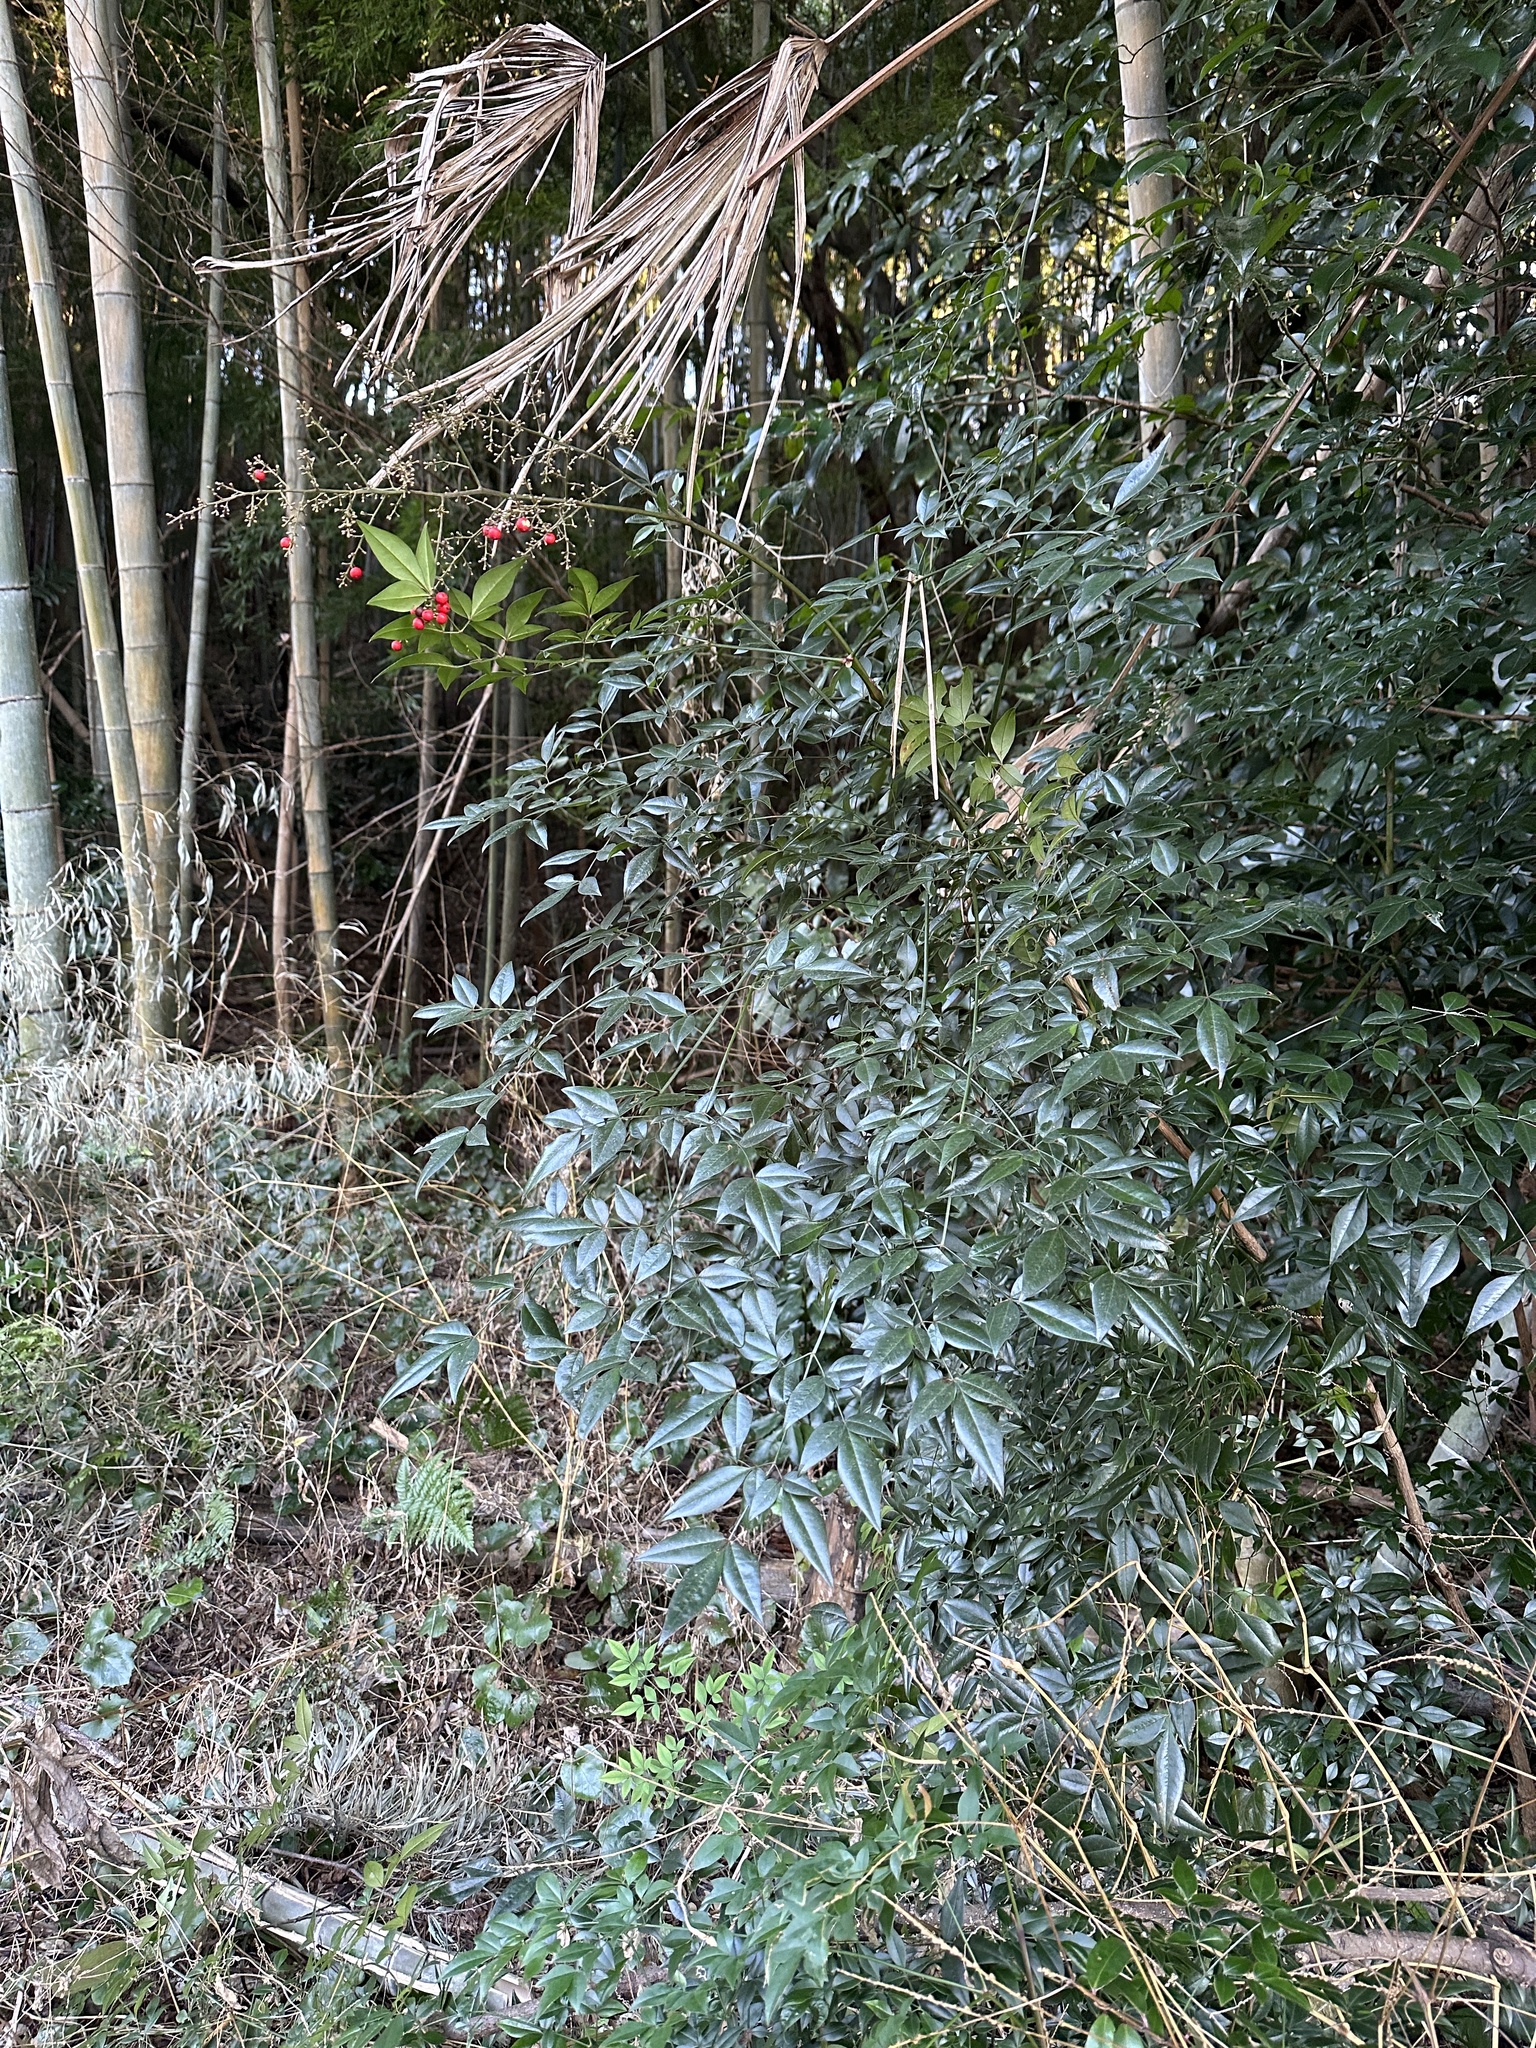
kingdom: Plantae
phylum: Tracheophyta
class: Magnoliopsida
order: Ranunculales
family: Berberidaceae
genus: Nandina
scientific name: Nandina domestica
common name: Sacred bamboo
